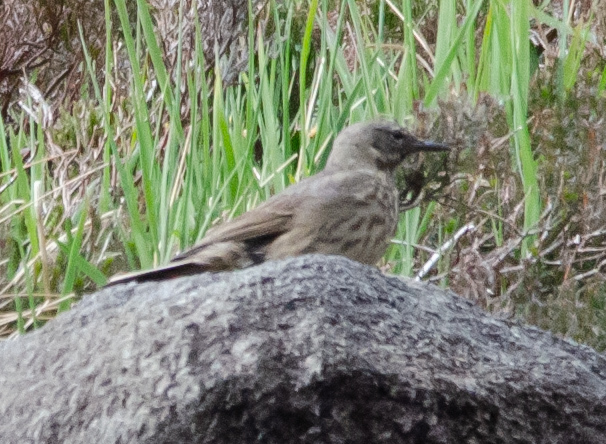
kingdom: Animalia
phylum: Chordata
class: Aves
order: Passeriformes
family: Motacillidae
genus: Anthus
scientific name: Anthus petrosus
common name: Eurasian rock pipit
